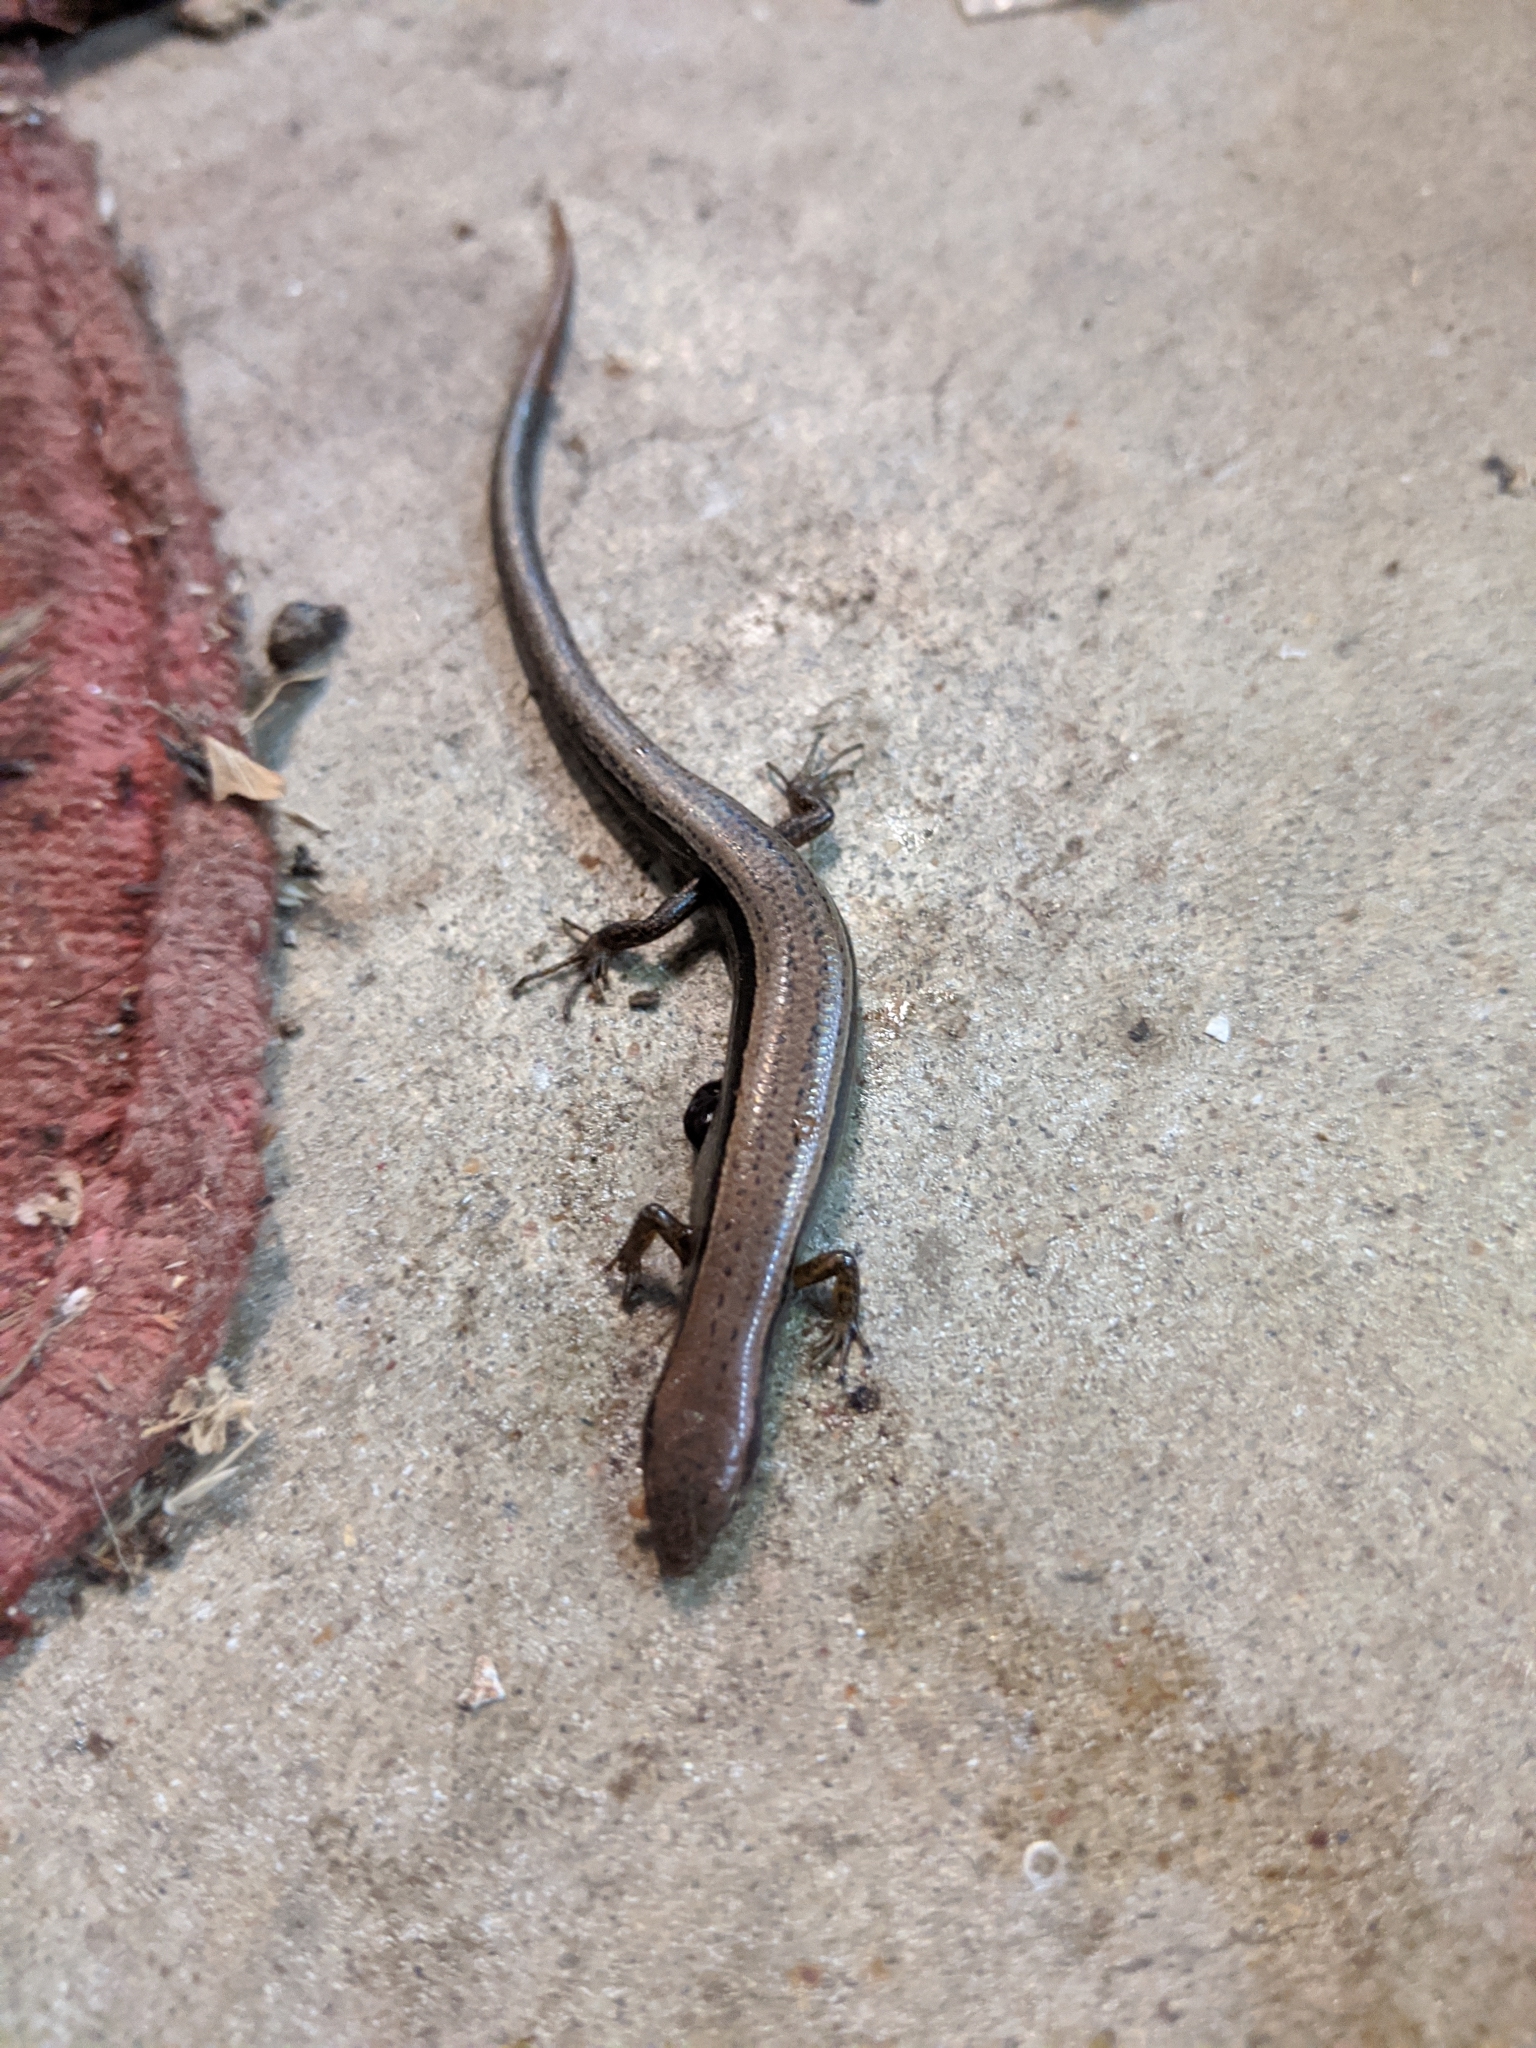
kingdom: Animalia
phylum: Chordata
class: Squamata
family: Scincidae
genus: Scincella
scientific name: Scincella lateralis
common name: Ground skink
